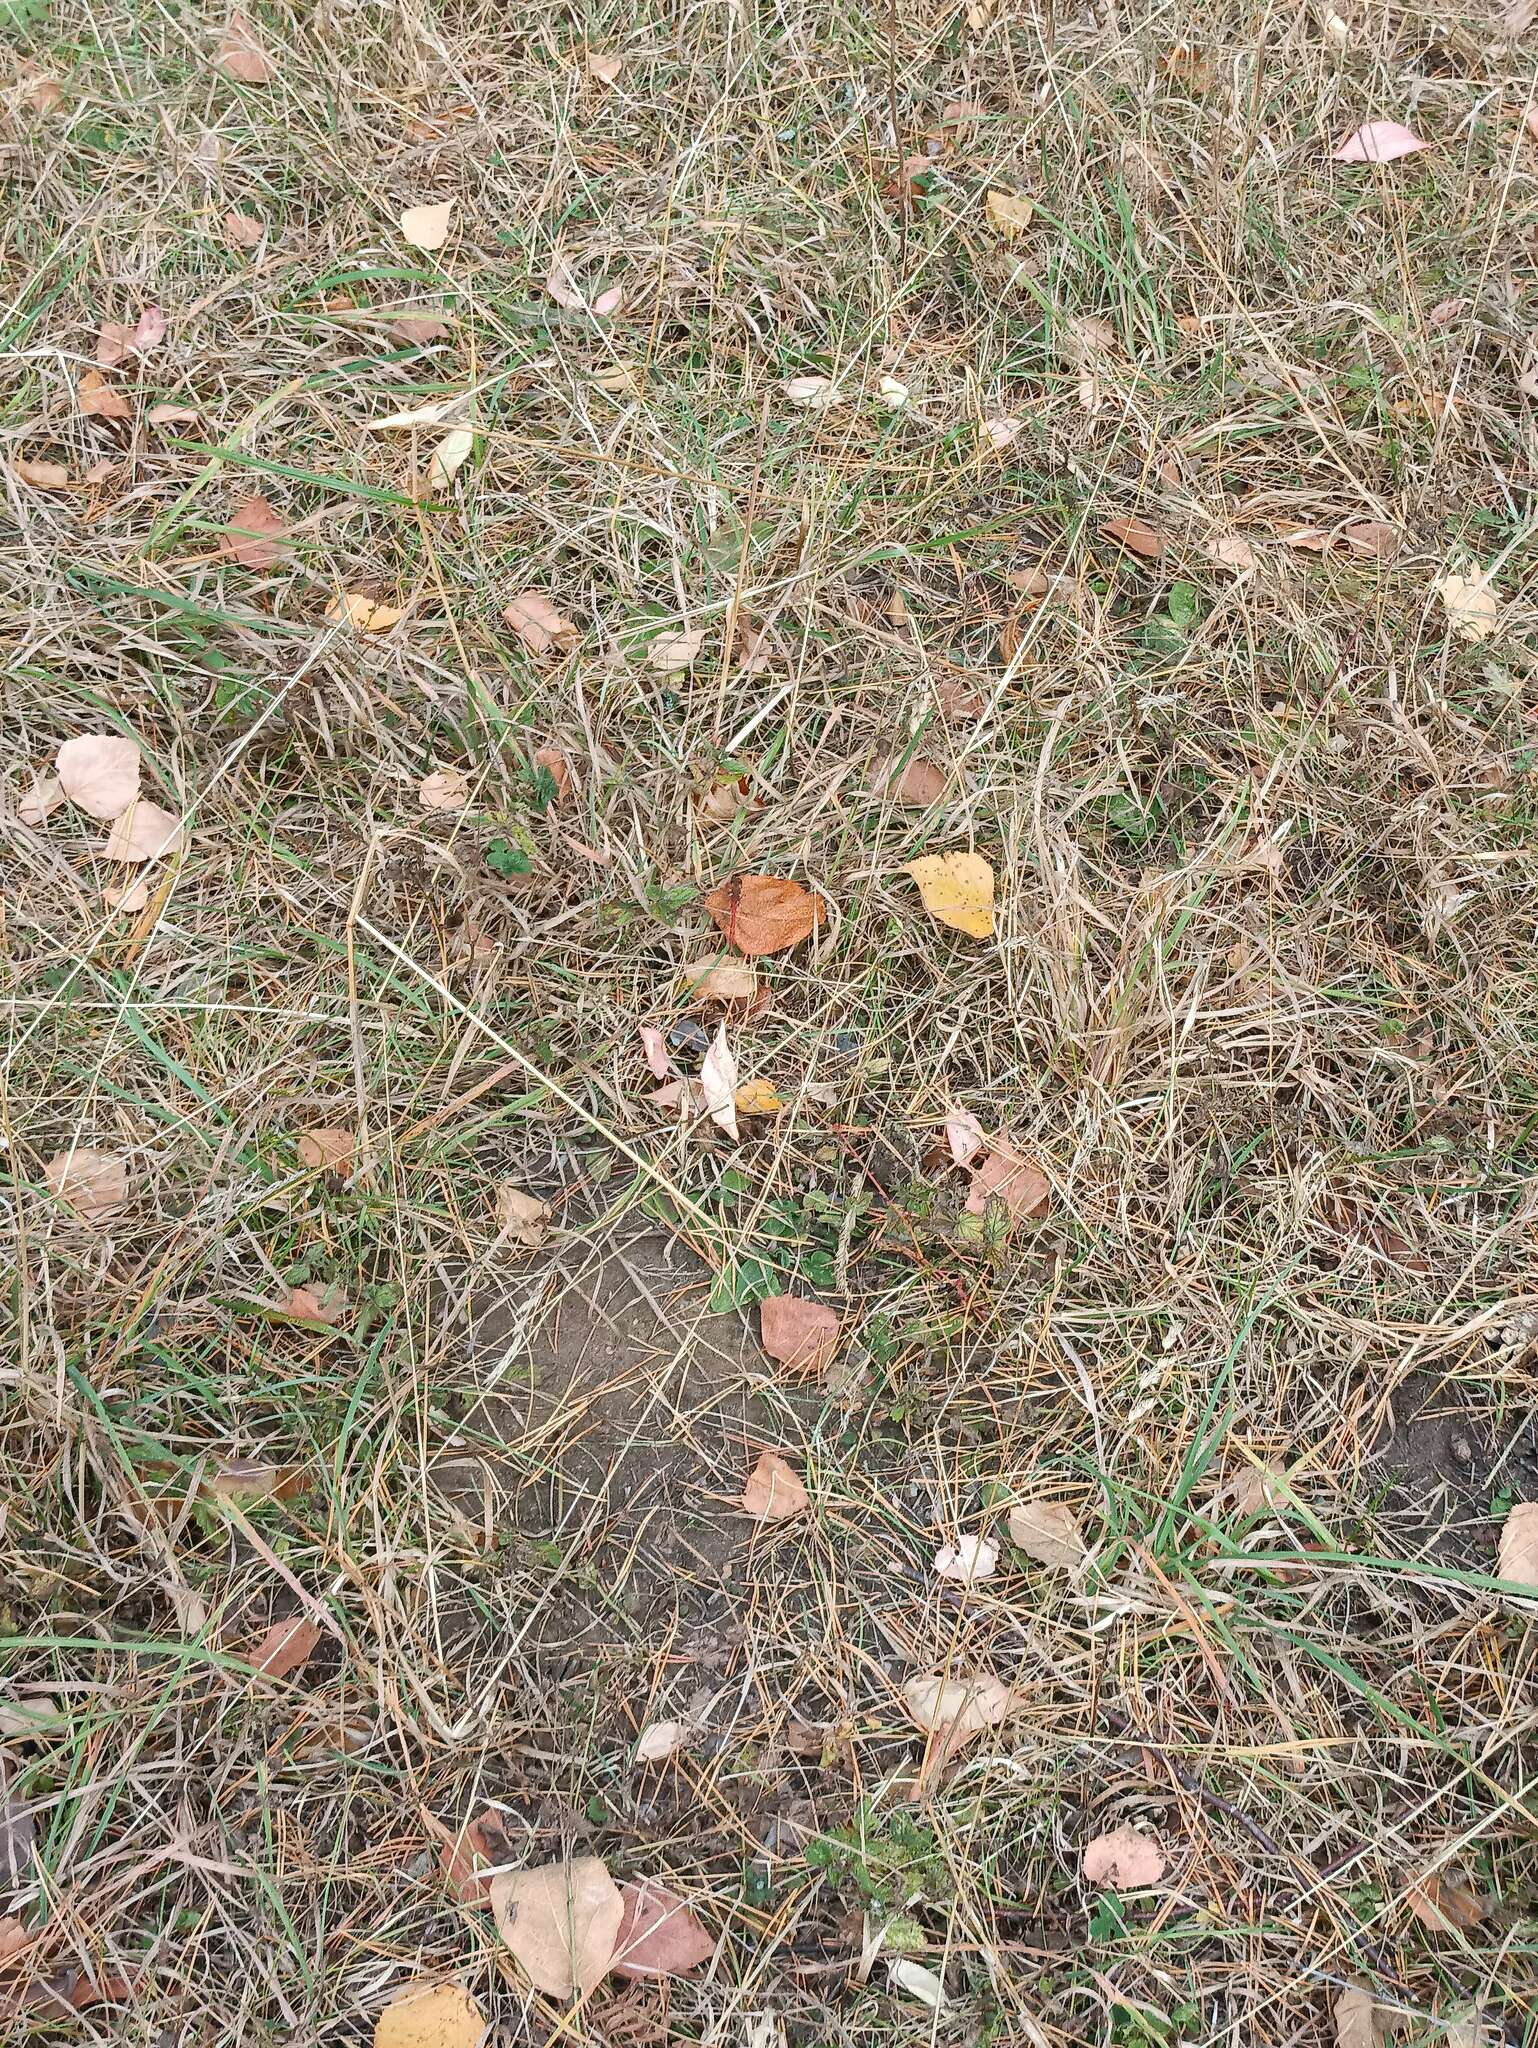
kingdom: Animalia
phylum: Arthropoda
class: Insecta
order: Odonata
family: Libellulidae
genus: Sympetrum
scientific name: Sympetrum vulgatum
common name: Vagrant darter
